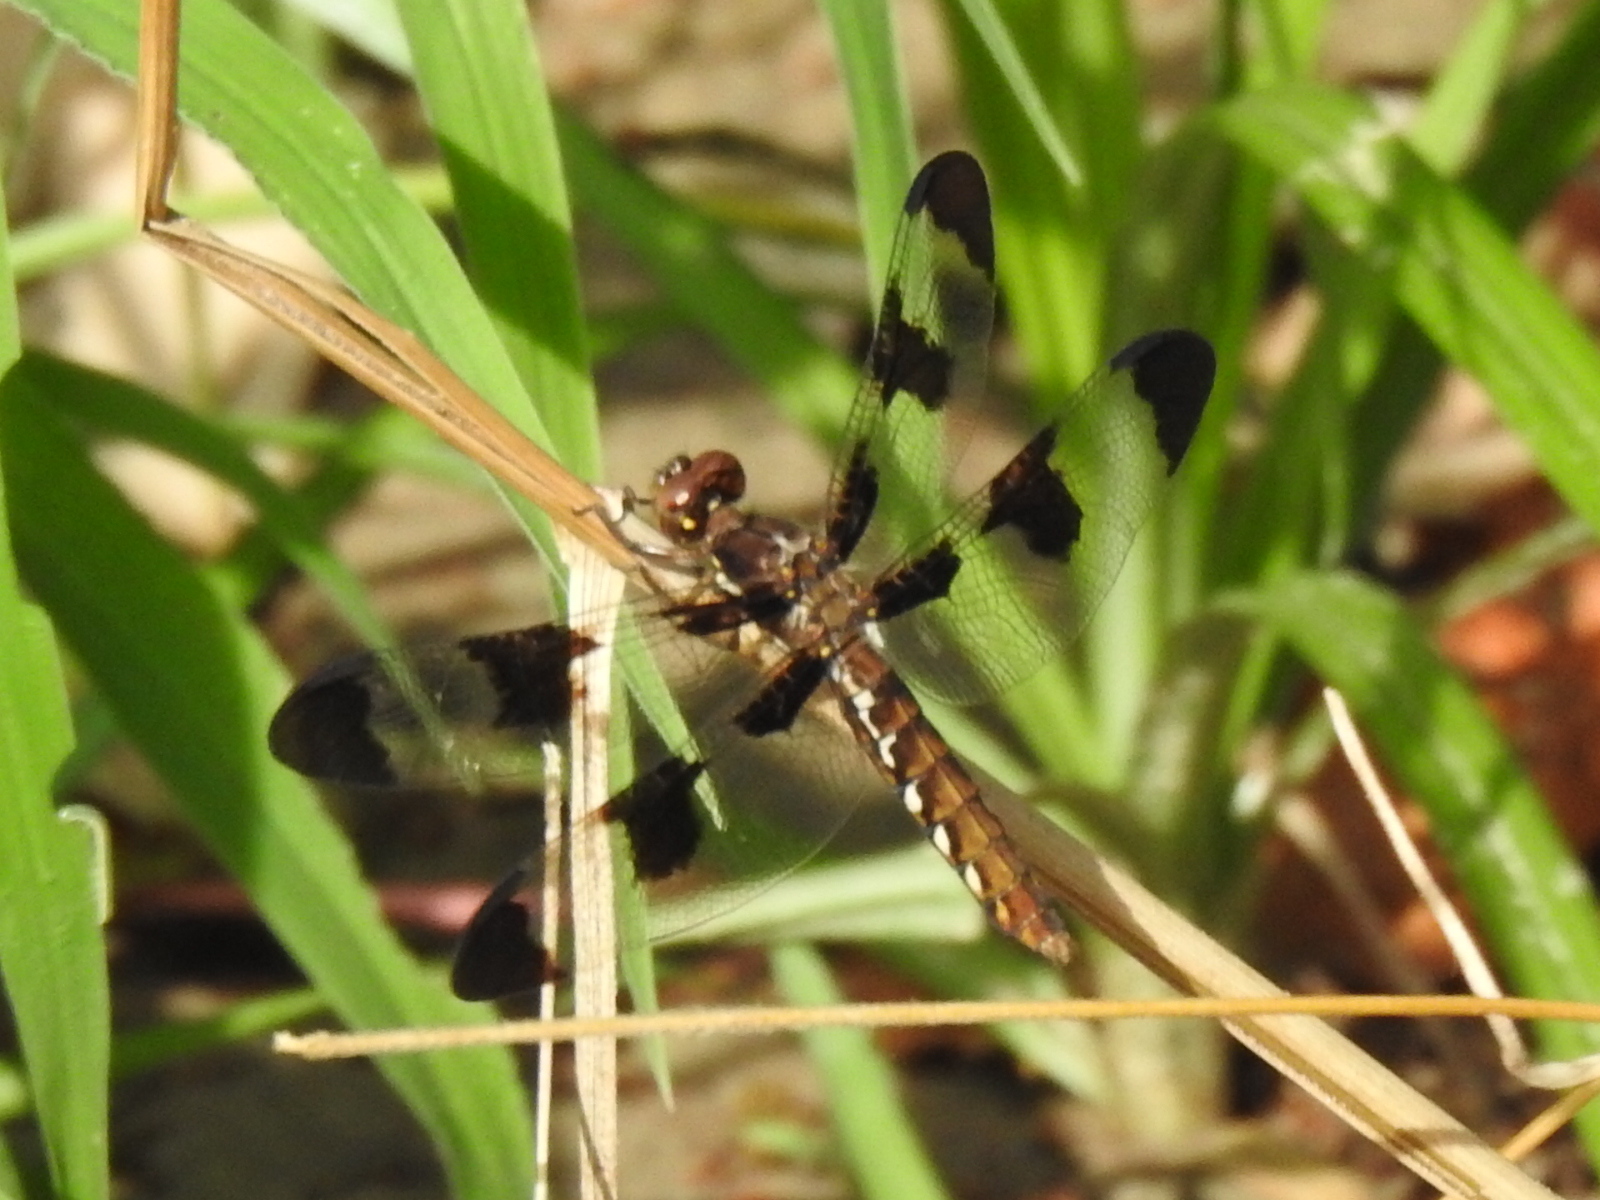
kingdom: Animalia
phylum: Arthropoda
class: Insecta
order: Odonata
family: Libellulidae
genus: Plathemis
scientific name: Plathemis lydia
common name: Common whitetail
